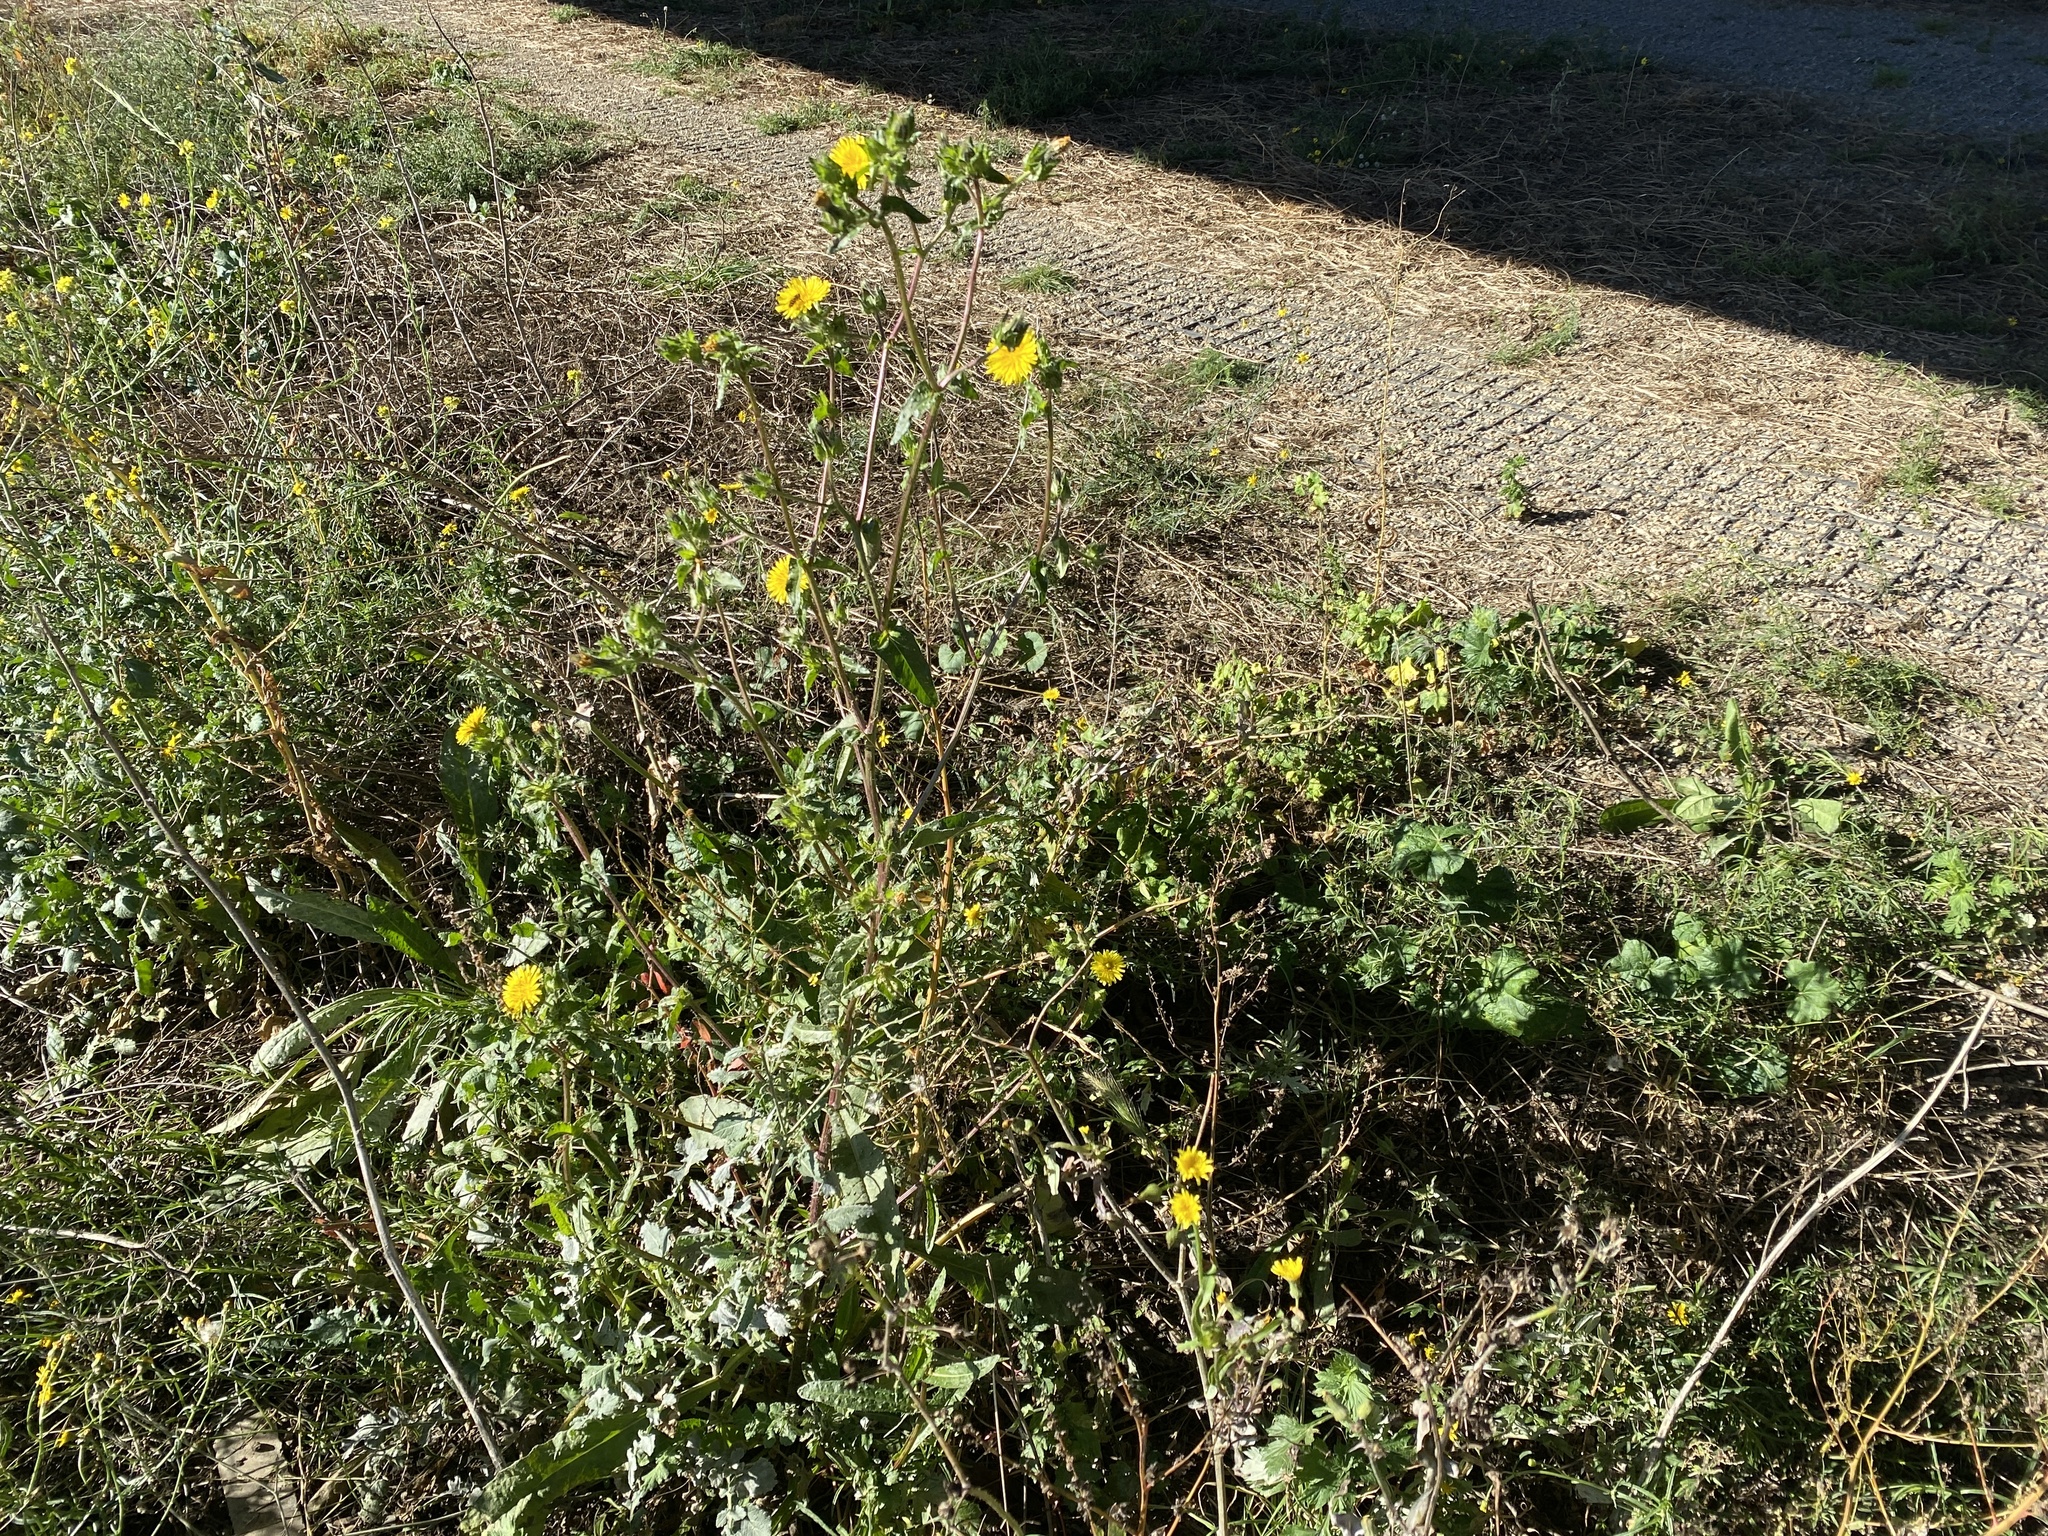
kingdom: Plantae
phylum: Tracheophyta
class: Magnoliopsida
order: Asterales
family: Asteraceae
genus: Helminthotheca
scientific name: Helminthotheca echioides
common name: Ox-tongue
